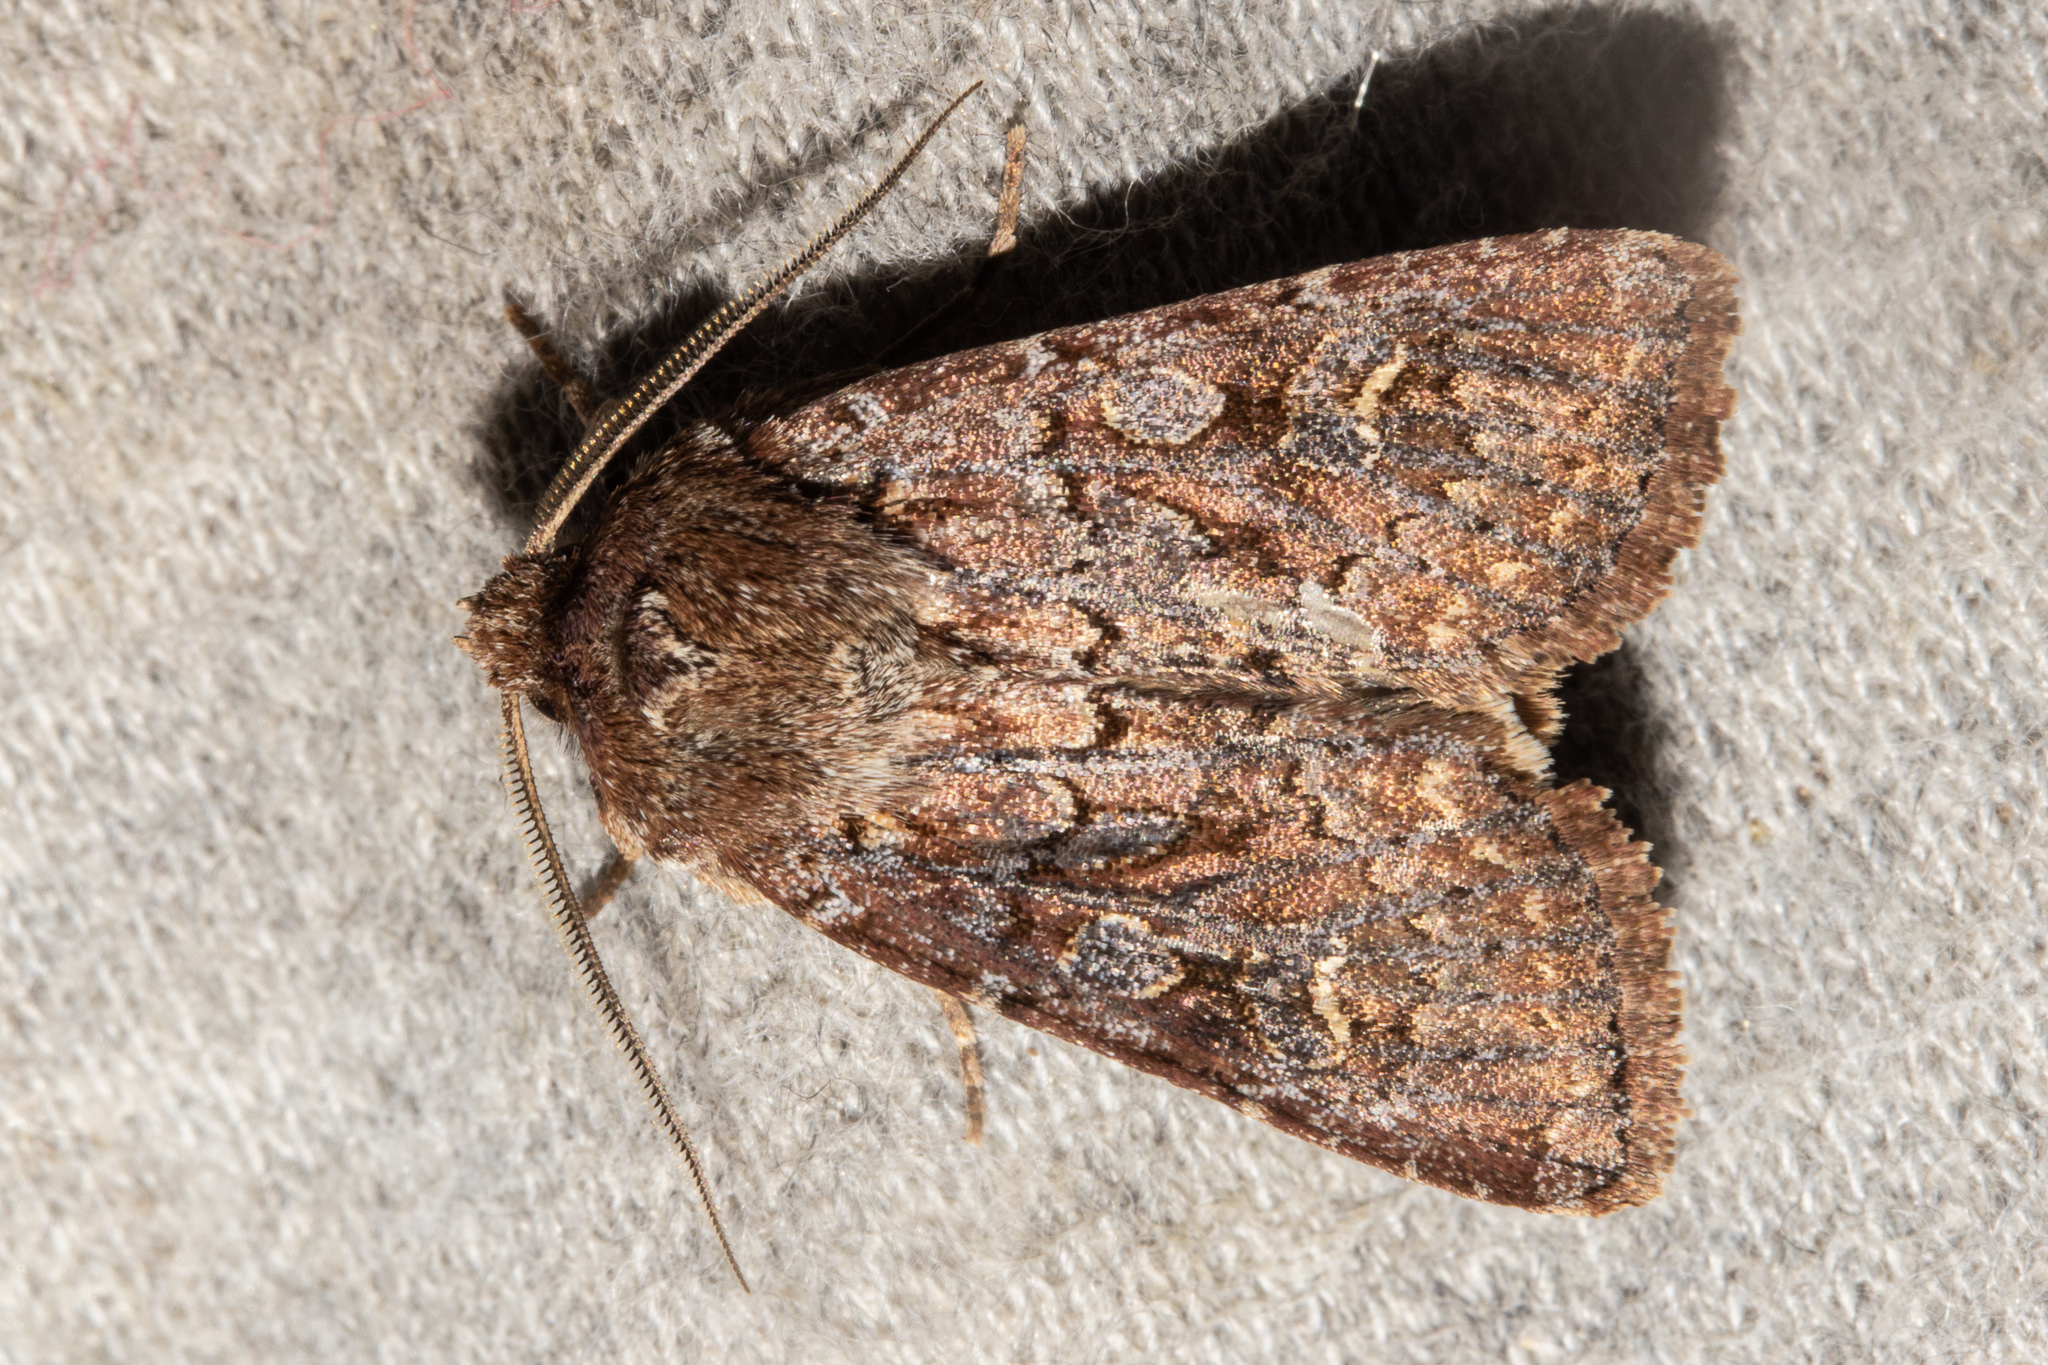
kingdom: Animalia
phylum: Arthropoda
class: Insecta
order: Lepidoptera
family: Noctuidae
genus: Ichneutica
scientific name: Ichneutica agorastis
